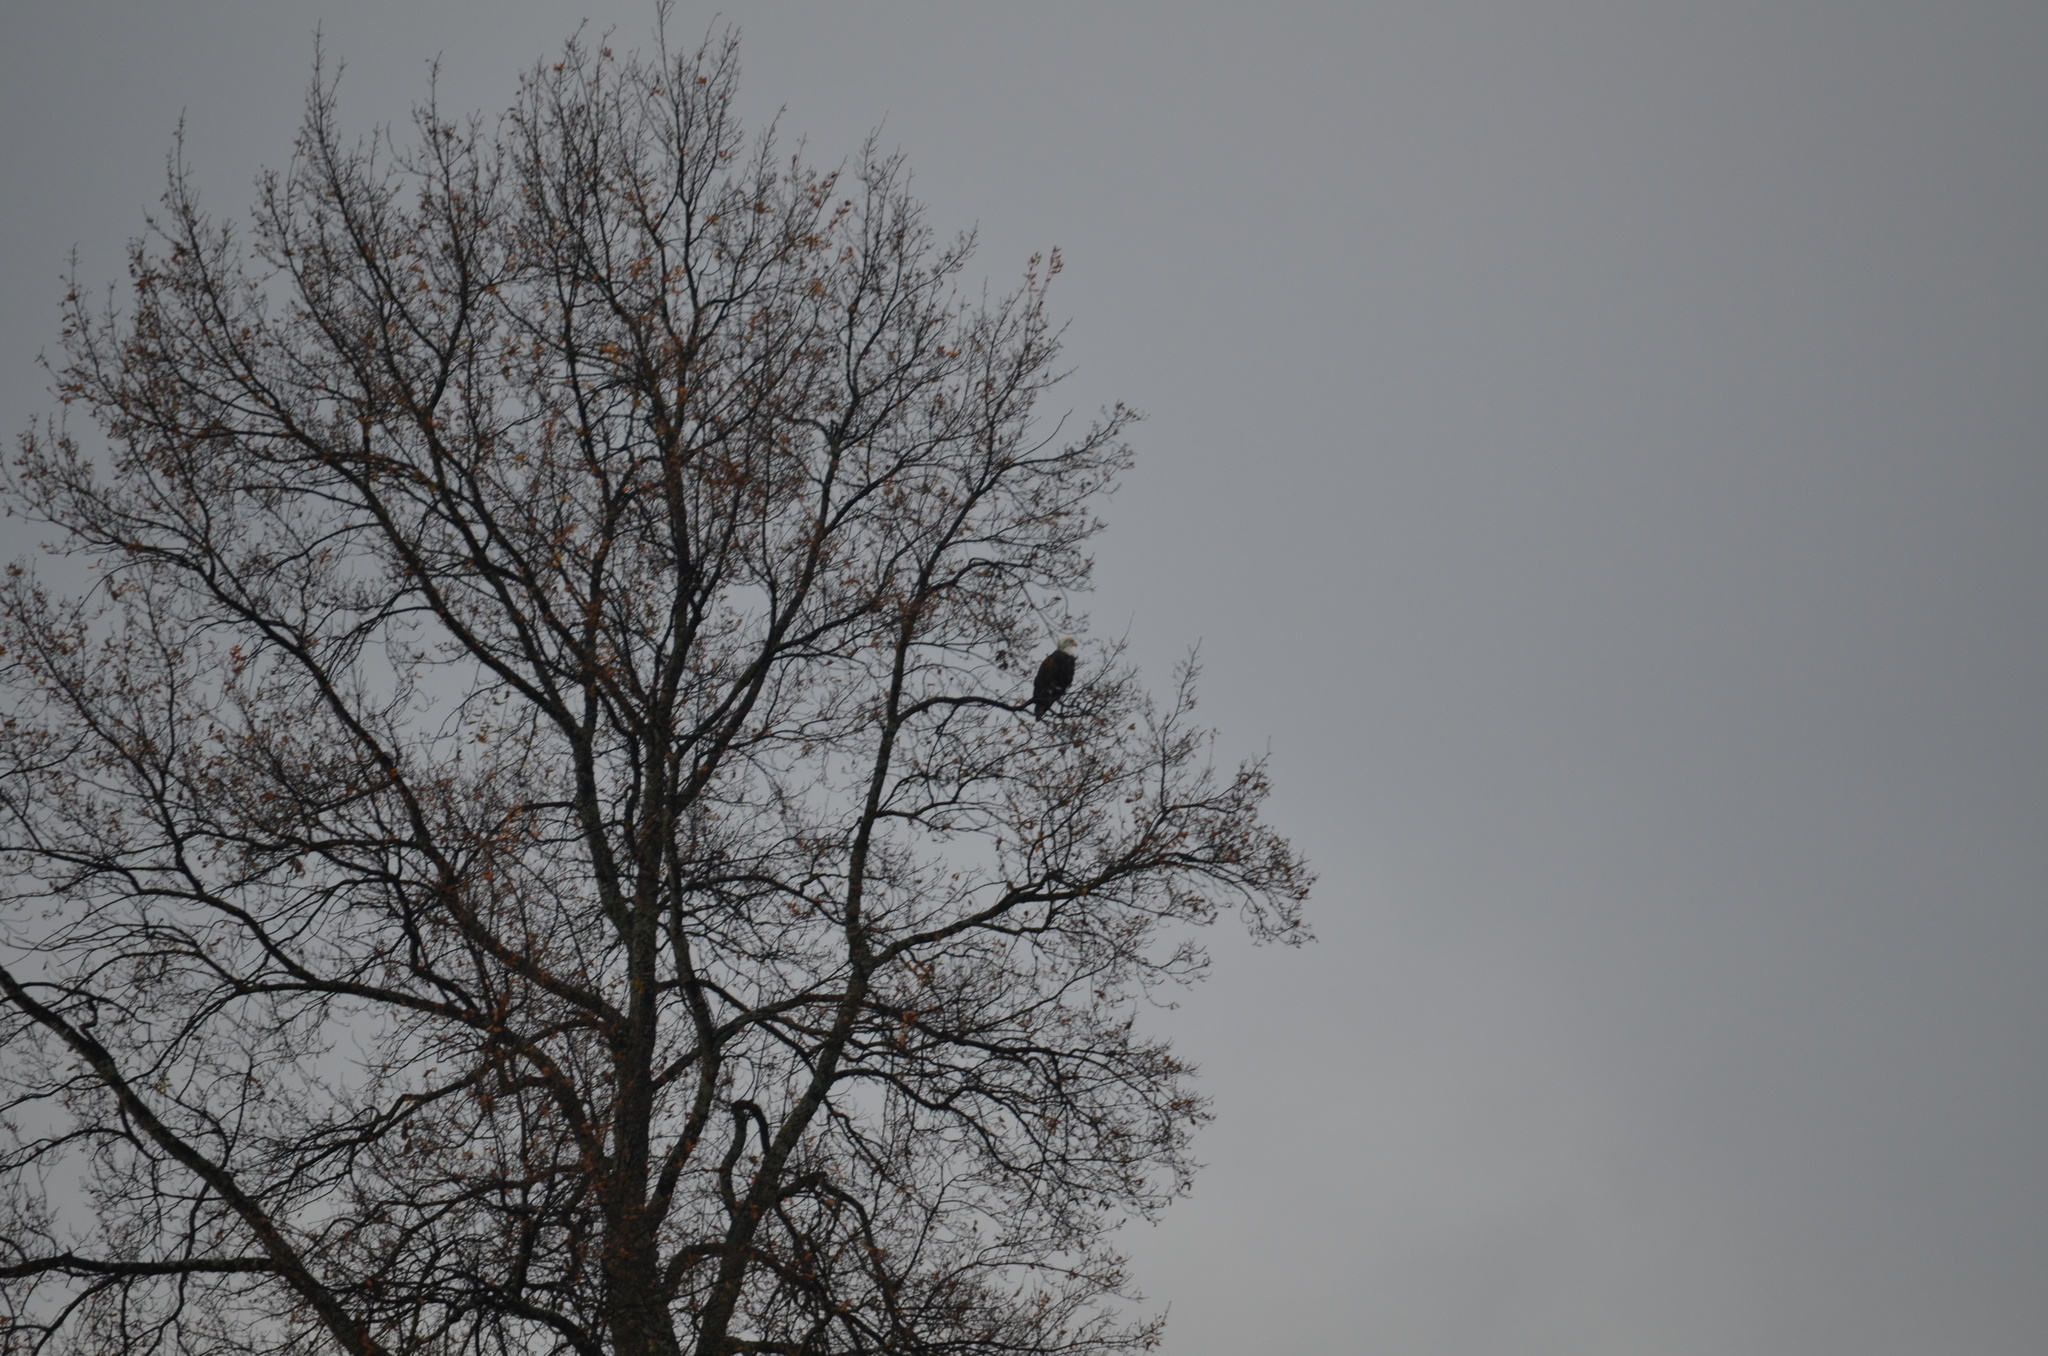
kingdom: Animalia
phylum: Chordata
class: Aves
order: Accipitriformes
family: Accipitridae
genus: Haliaeetus
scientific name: Haliaeetus leucocephalus
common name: Bald eagle
